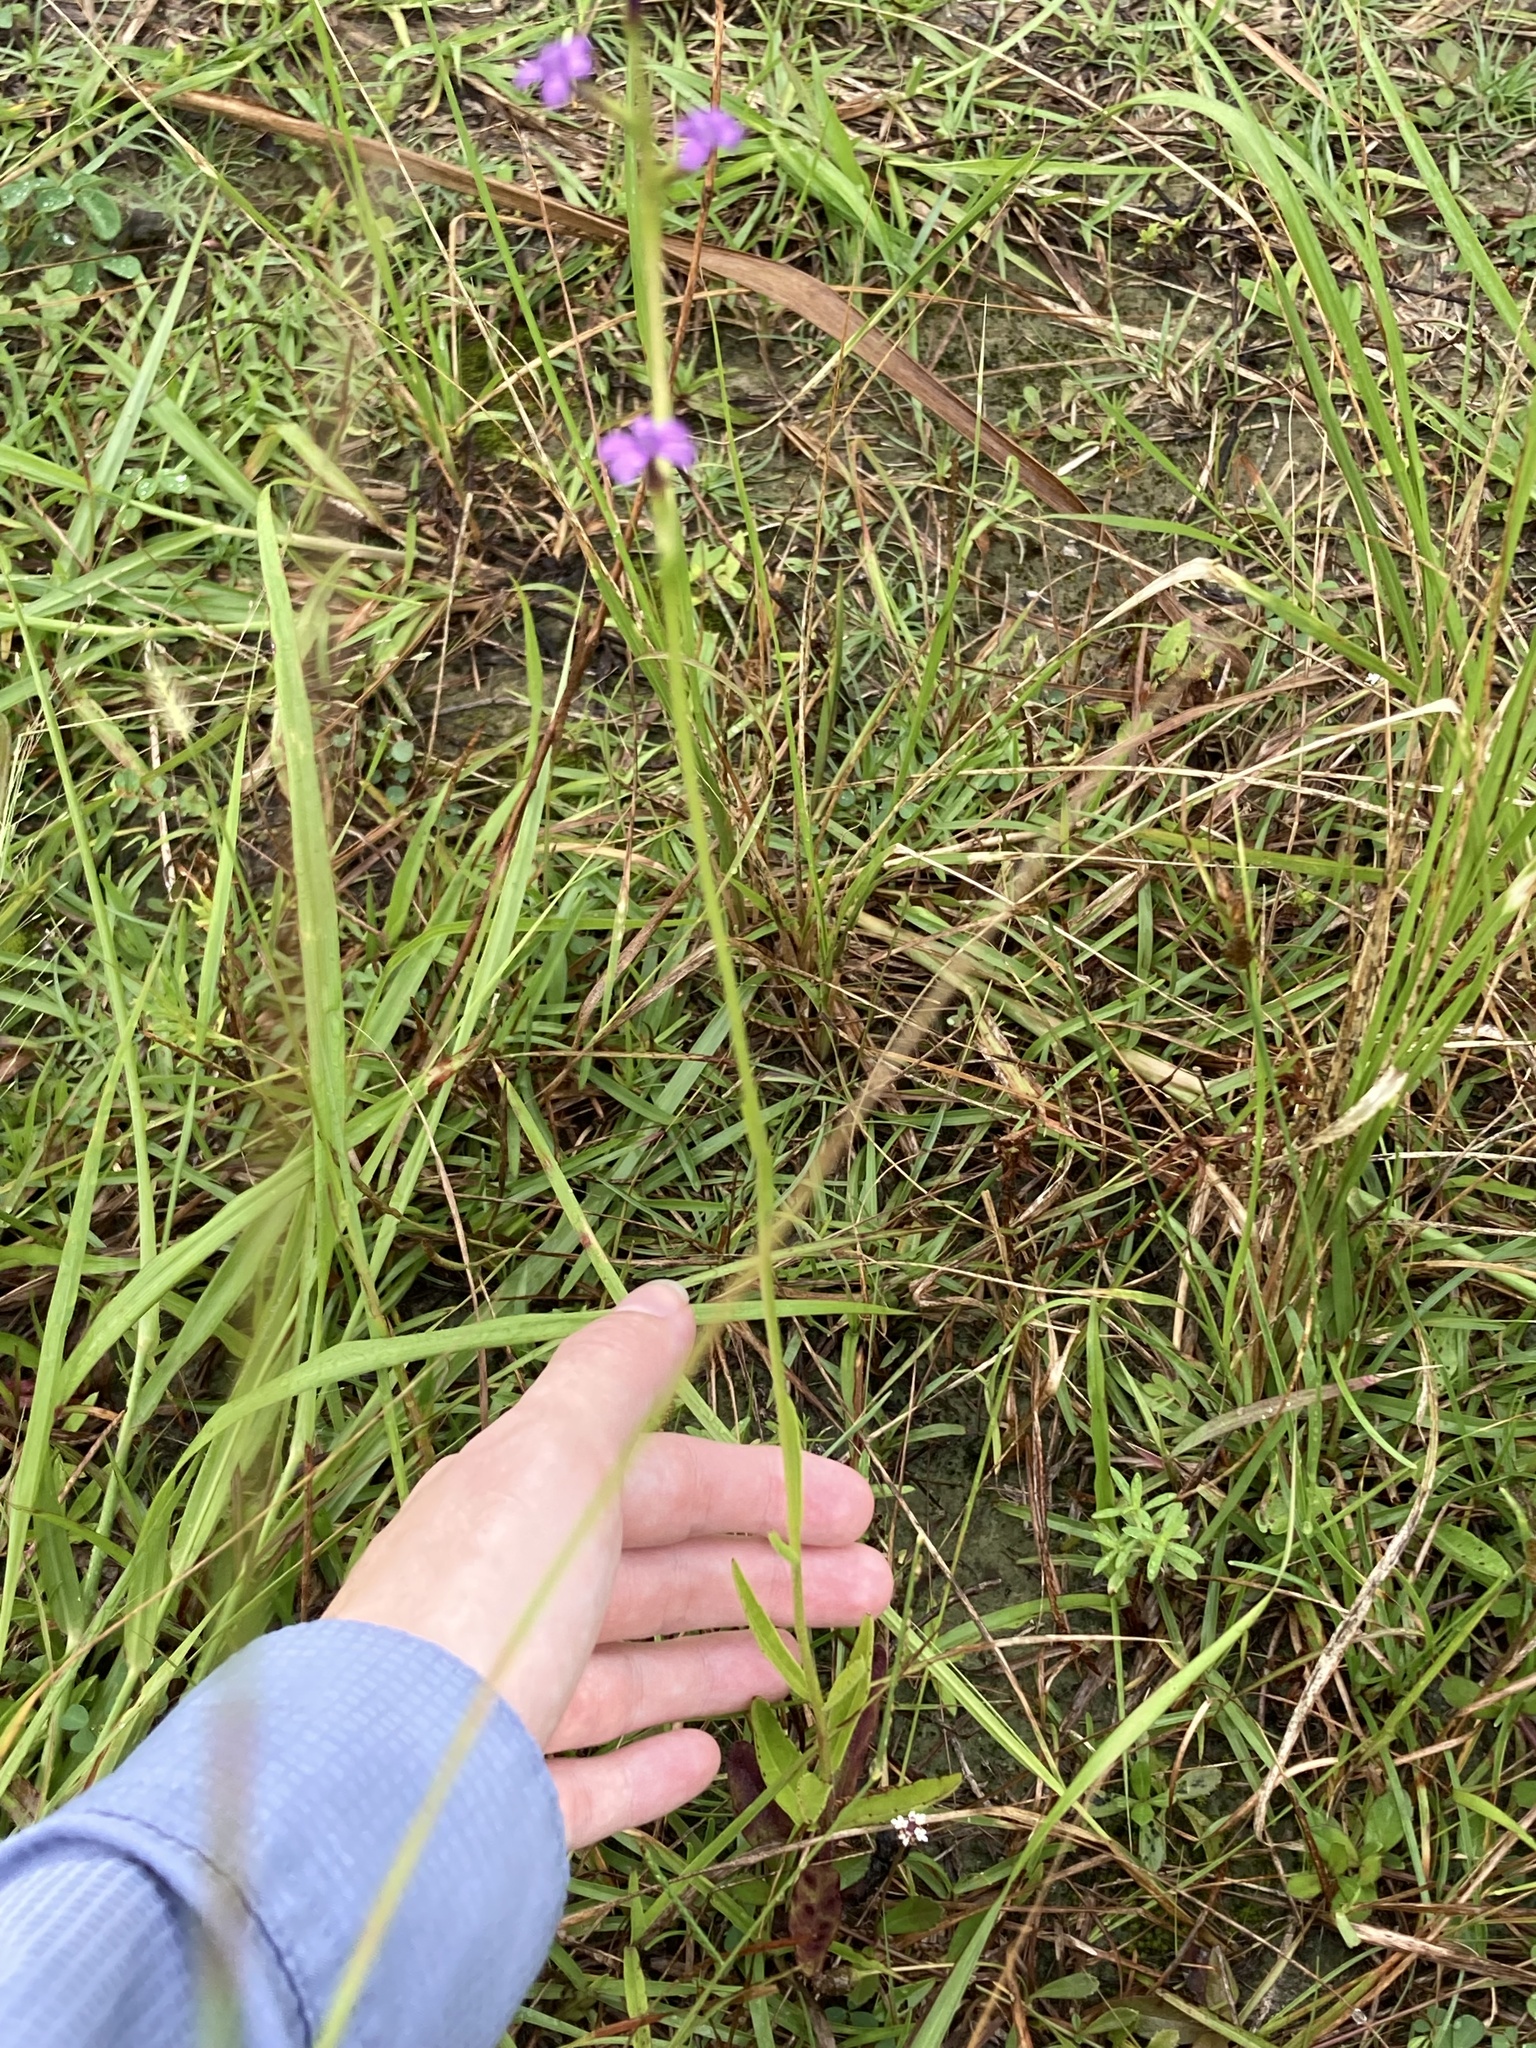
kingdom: Plantae
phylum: Tracheophyta
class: Magnoliopsida
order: Lamiales
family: Orobanchaceae
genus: Buchnera
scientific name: Buchnera floridana
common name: Florida bluehearts
